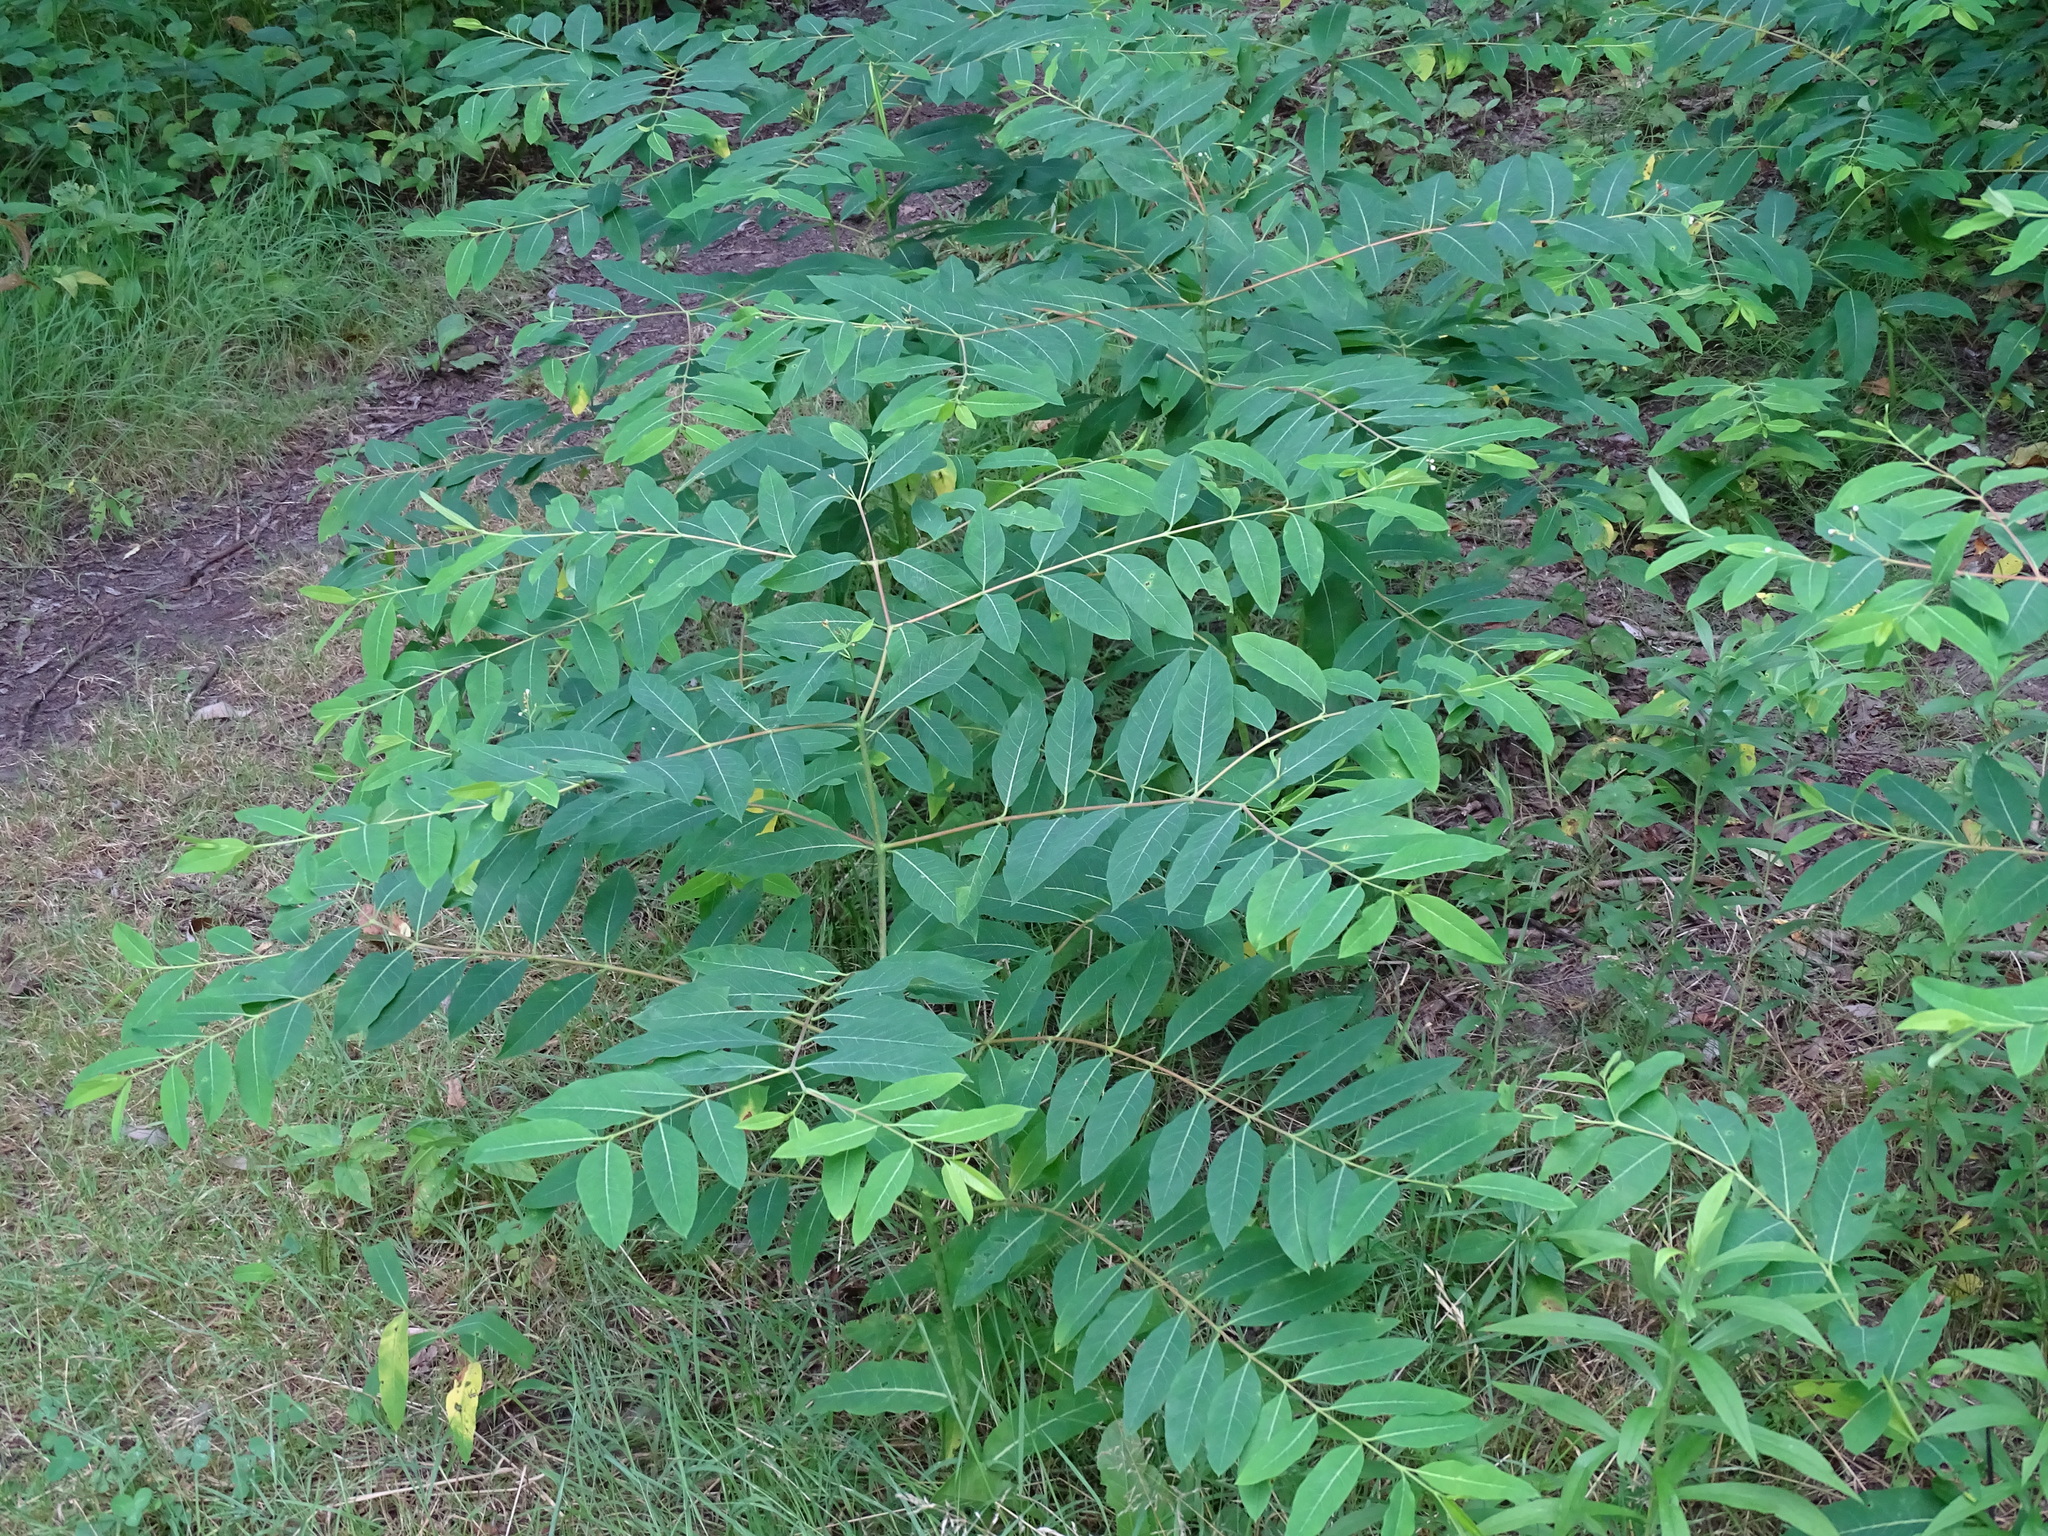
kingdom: Plantae
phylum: Tracheophyta
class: Magnoliopsida
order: Gentianales
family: Apocynaceae
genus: Apocynum
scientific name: Apocynum androsaemifolium
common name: Spreading dogbane
